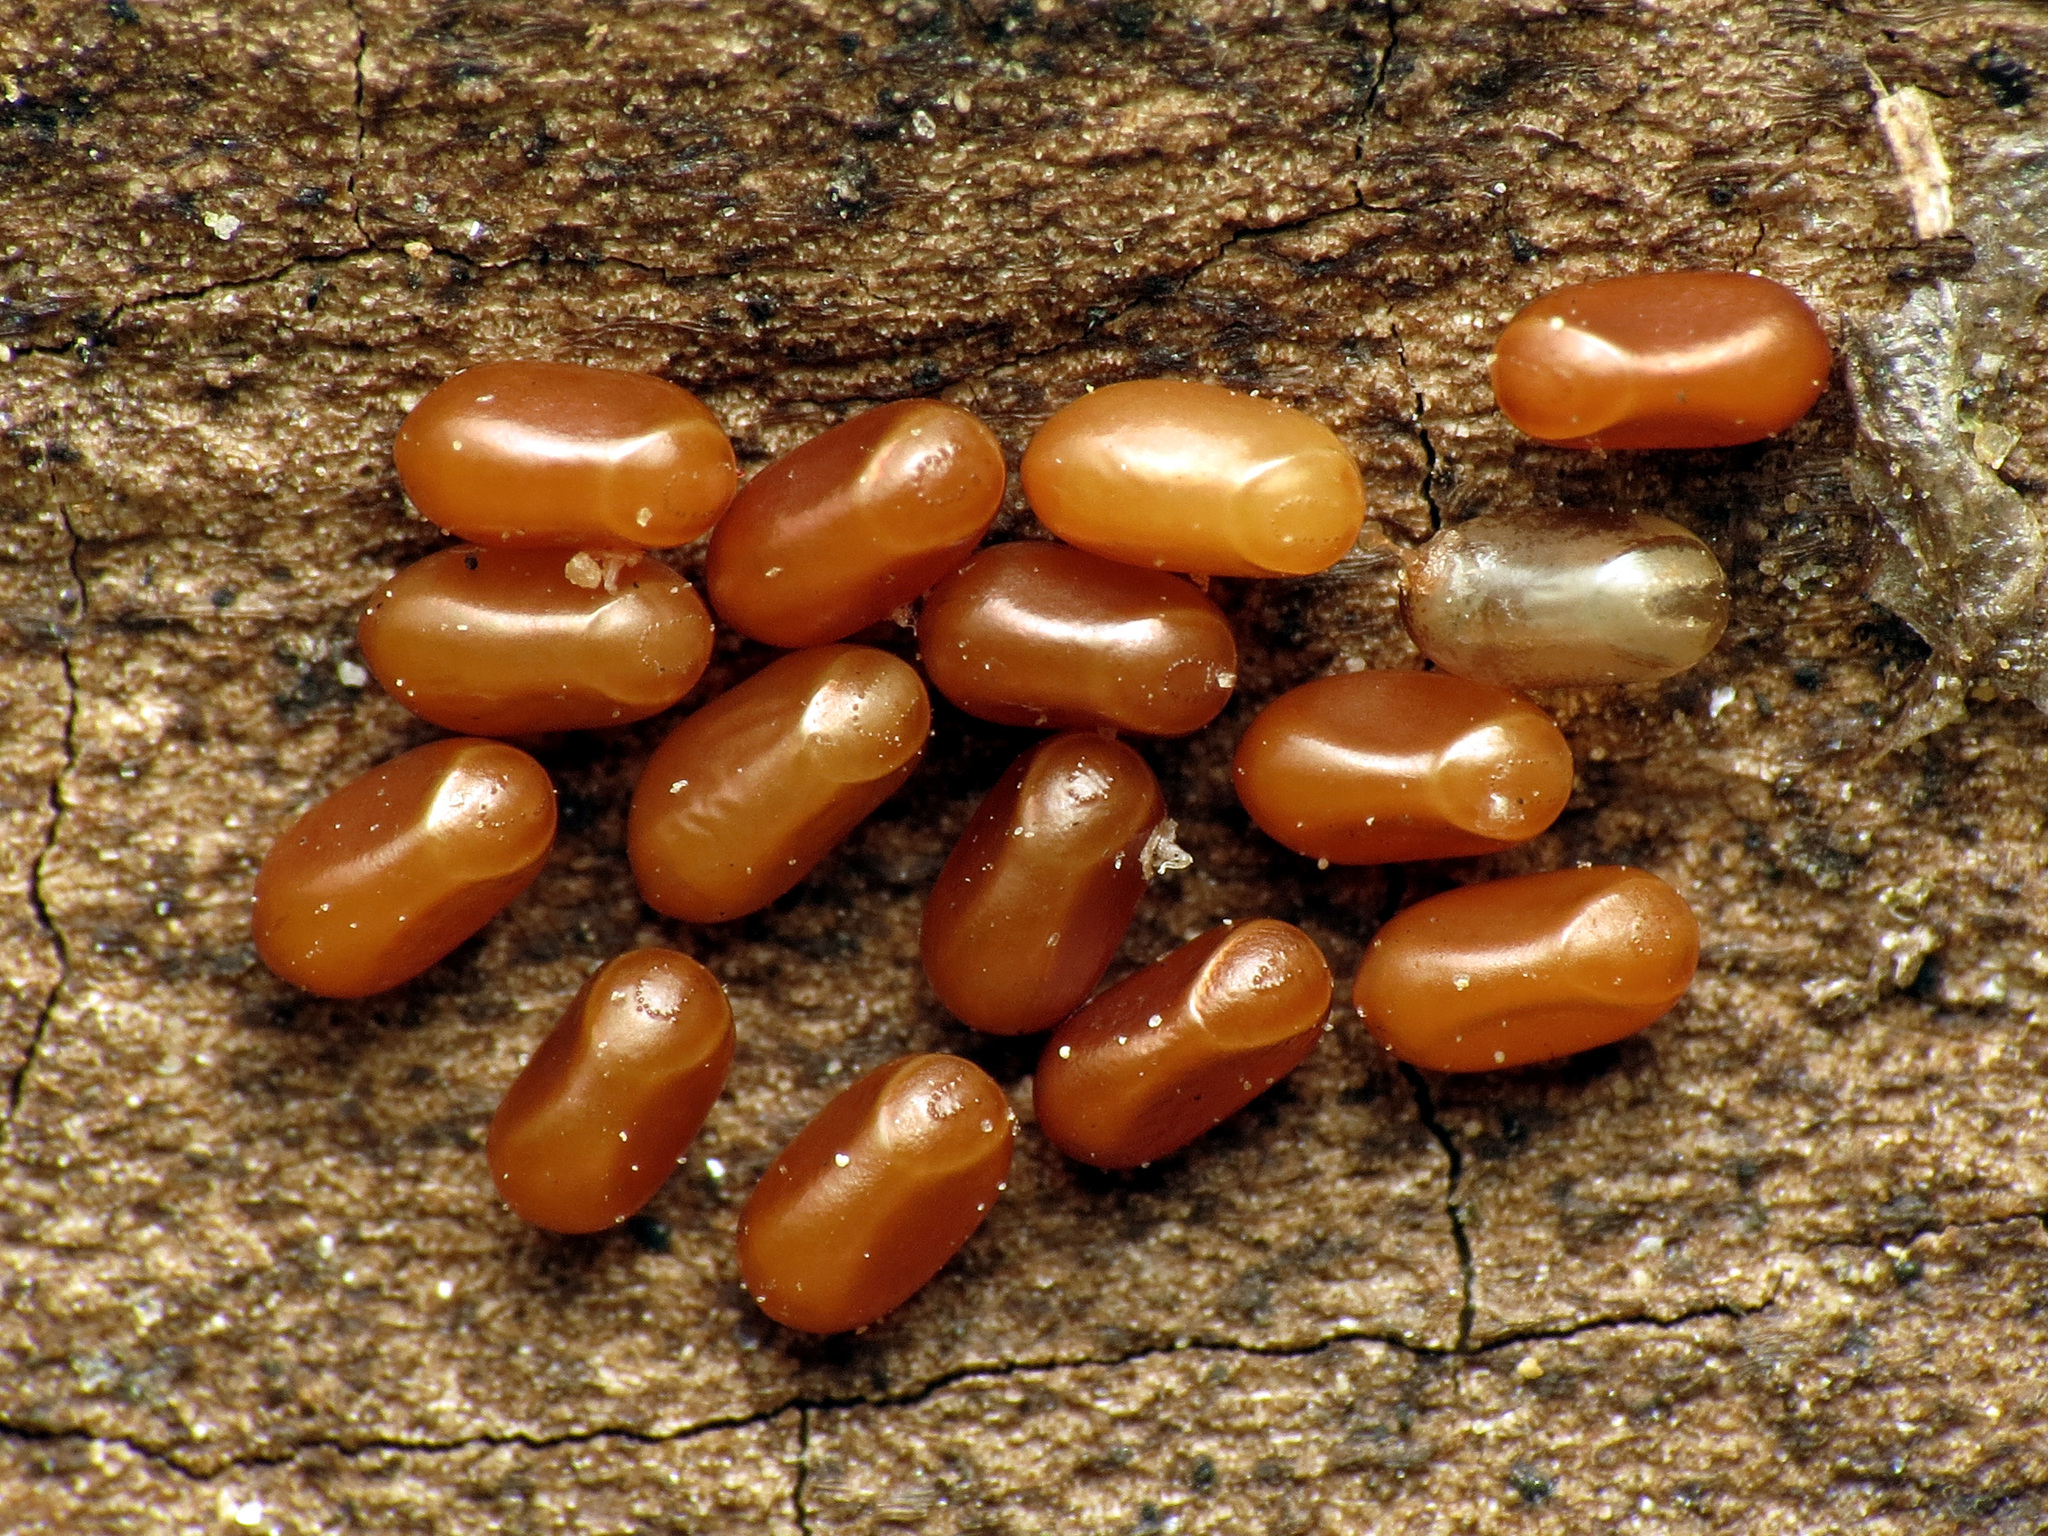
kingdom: Animalia
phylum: Arthropoda
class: Insecta
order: Hemiptera
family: Rhopalidae
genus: Boisea
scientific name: Boisea trivittata
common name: Boxelder bug
